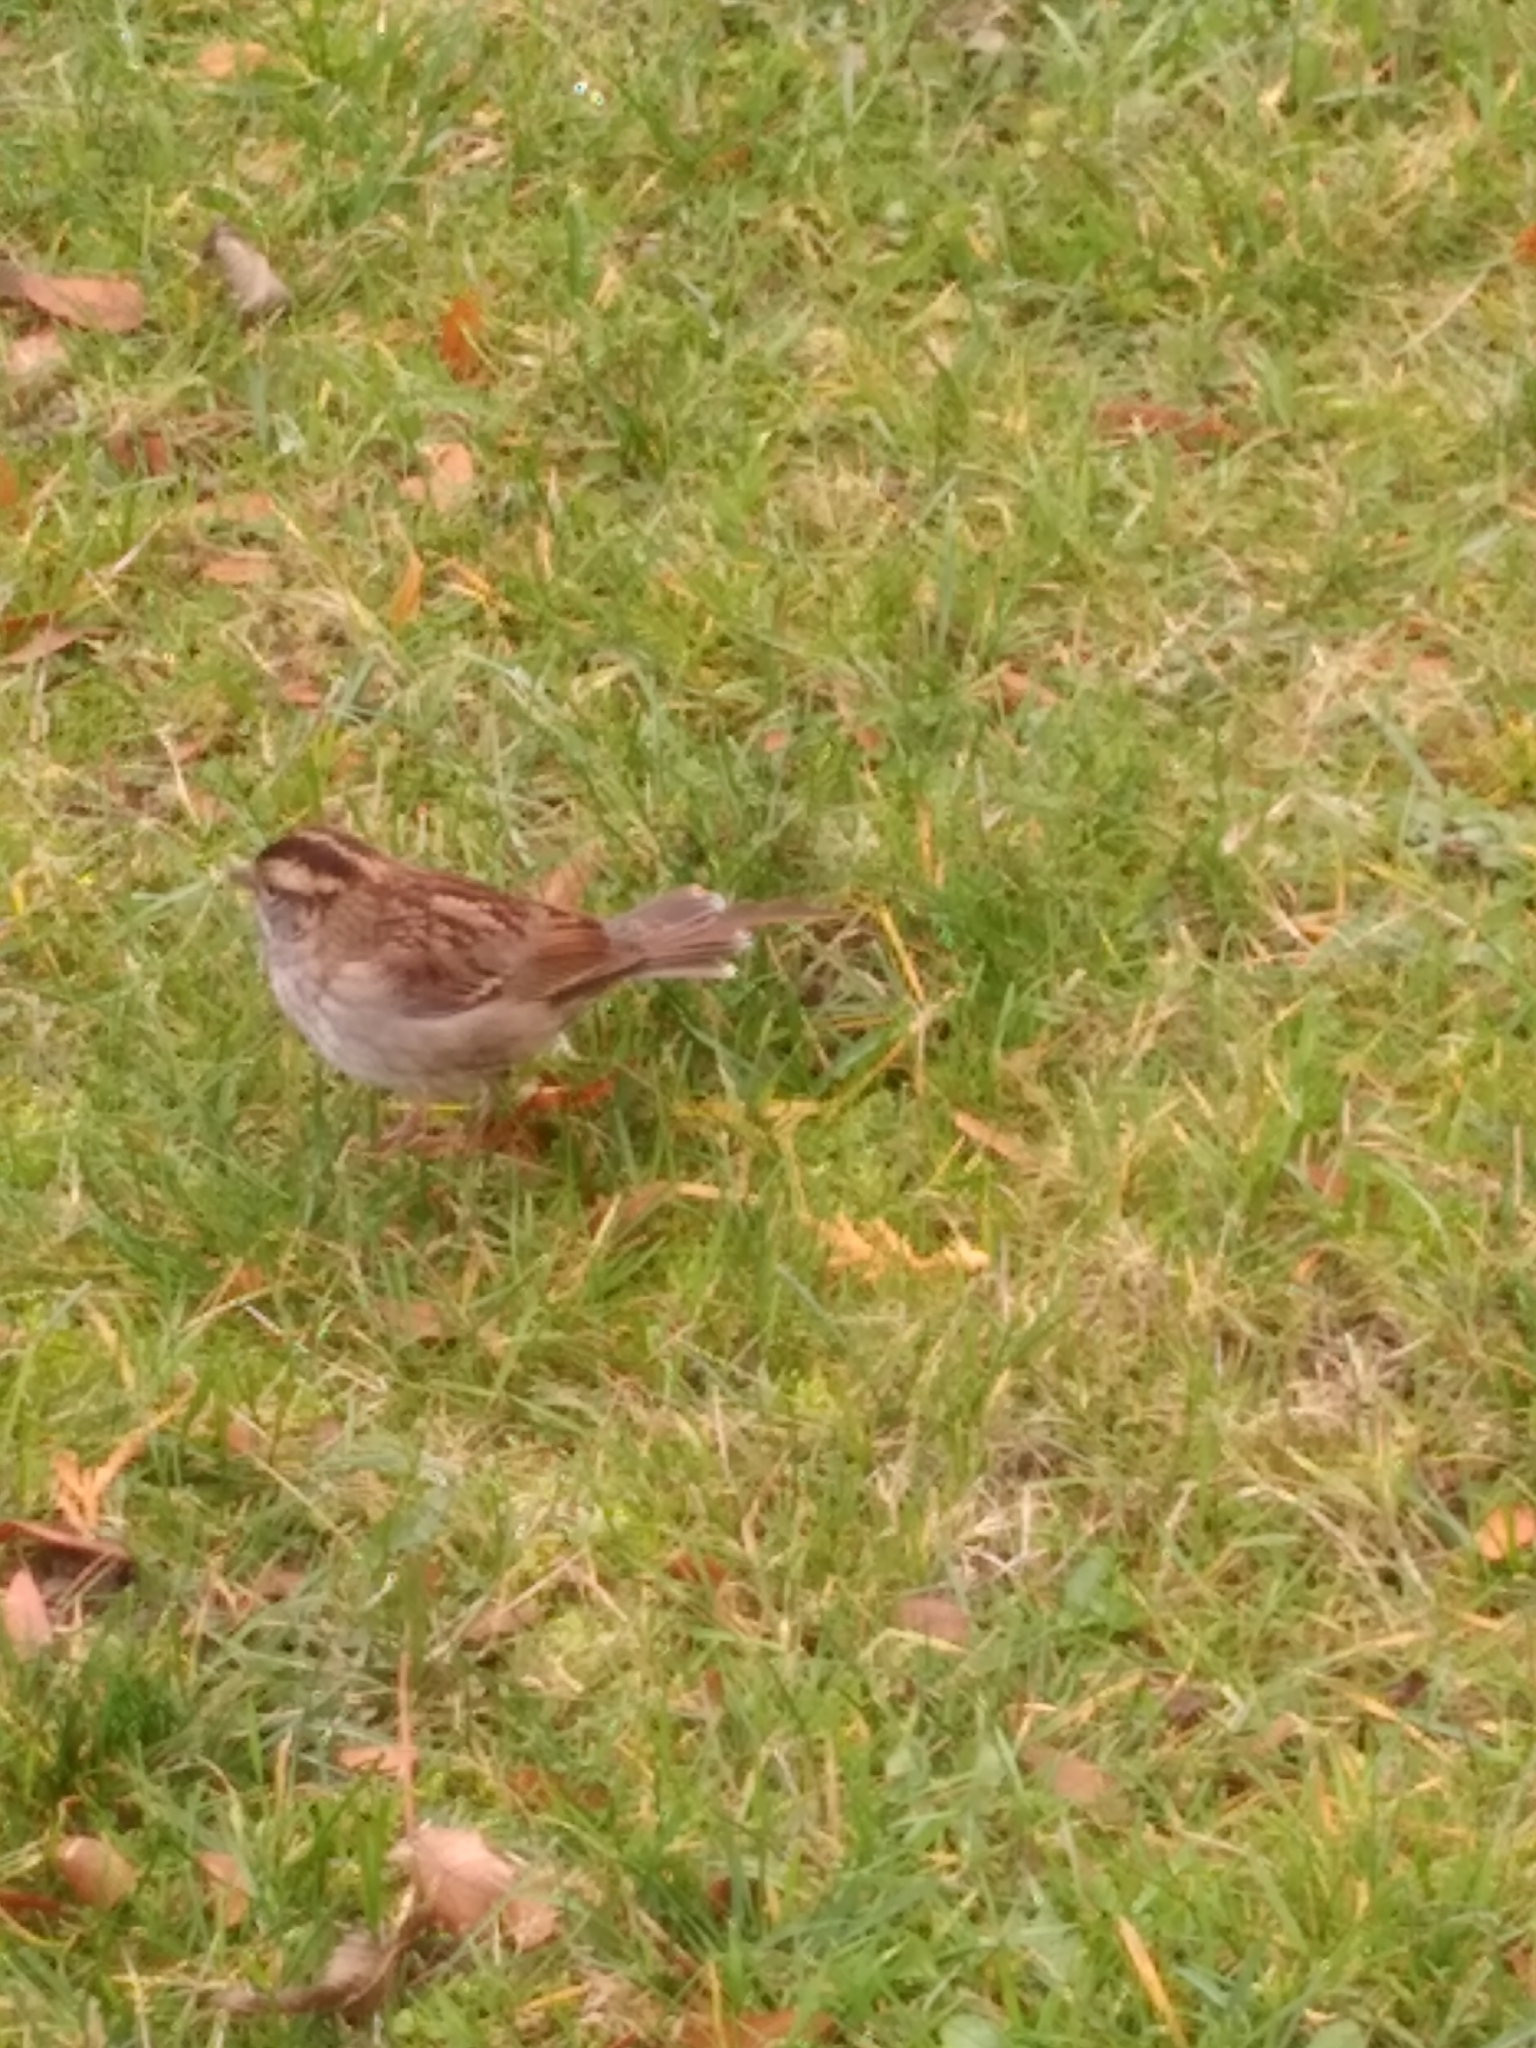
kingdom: Animalia
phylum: Chordata
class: Aves
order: Passeriformes
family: Passerellidae
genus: Zonotrichia
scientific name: Zonotrichia albicollis
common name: White-throated sparrow
